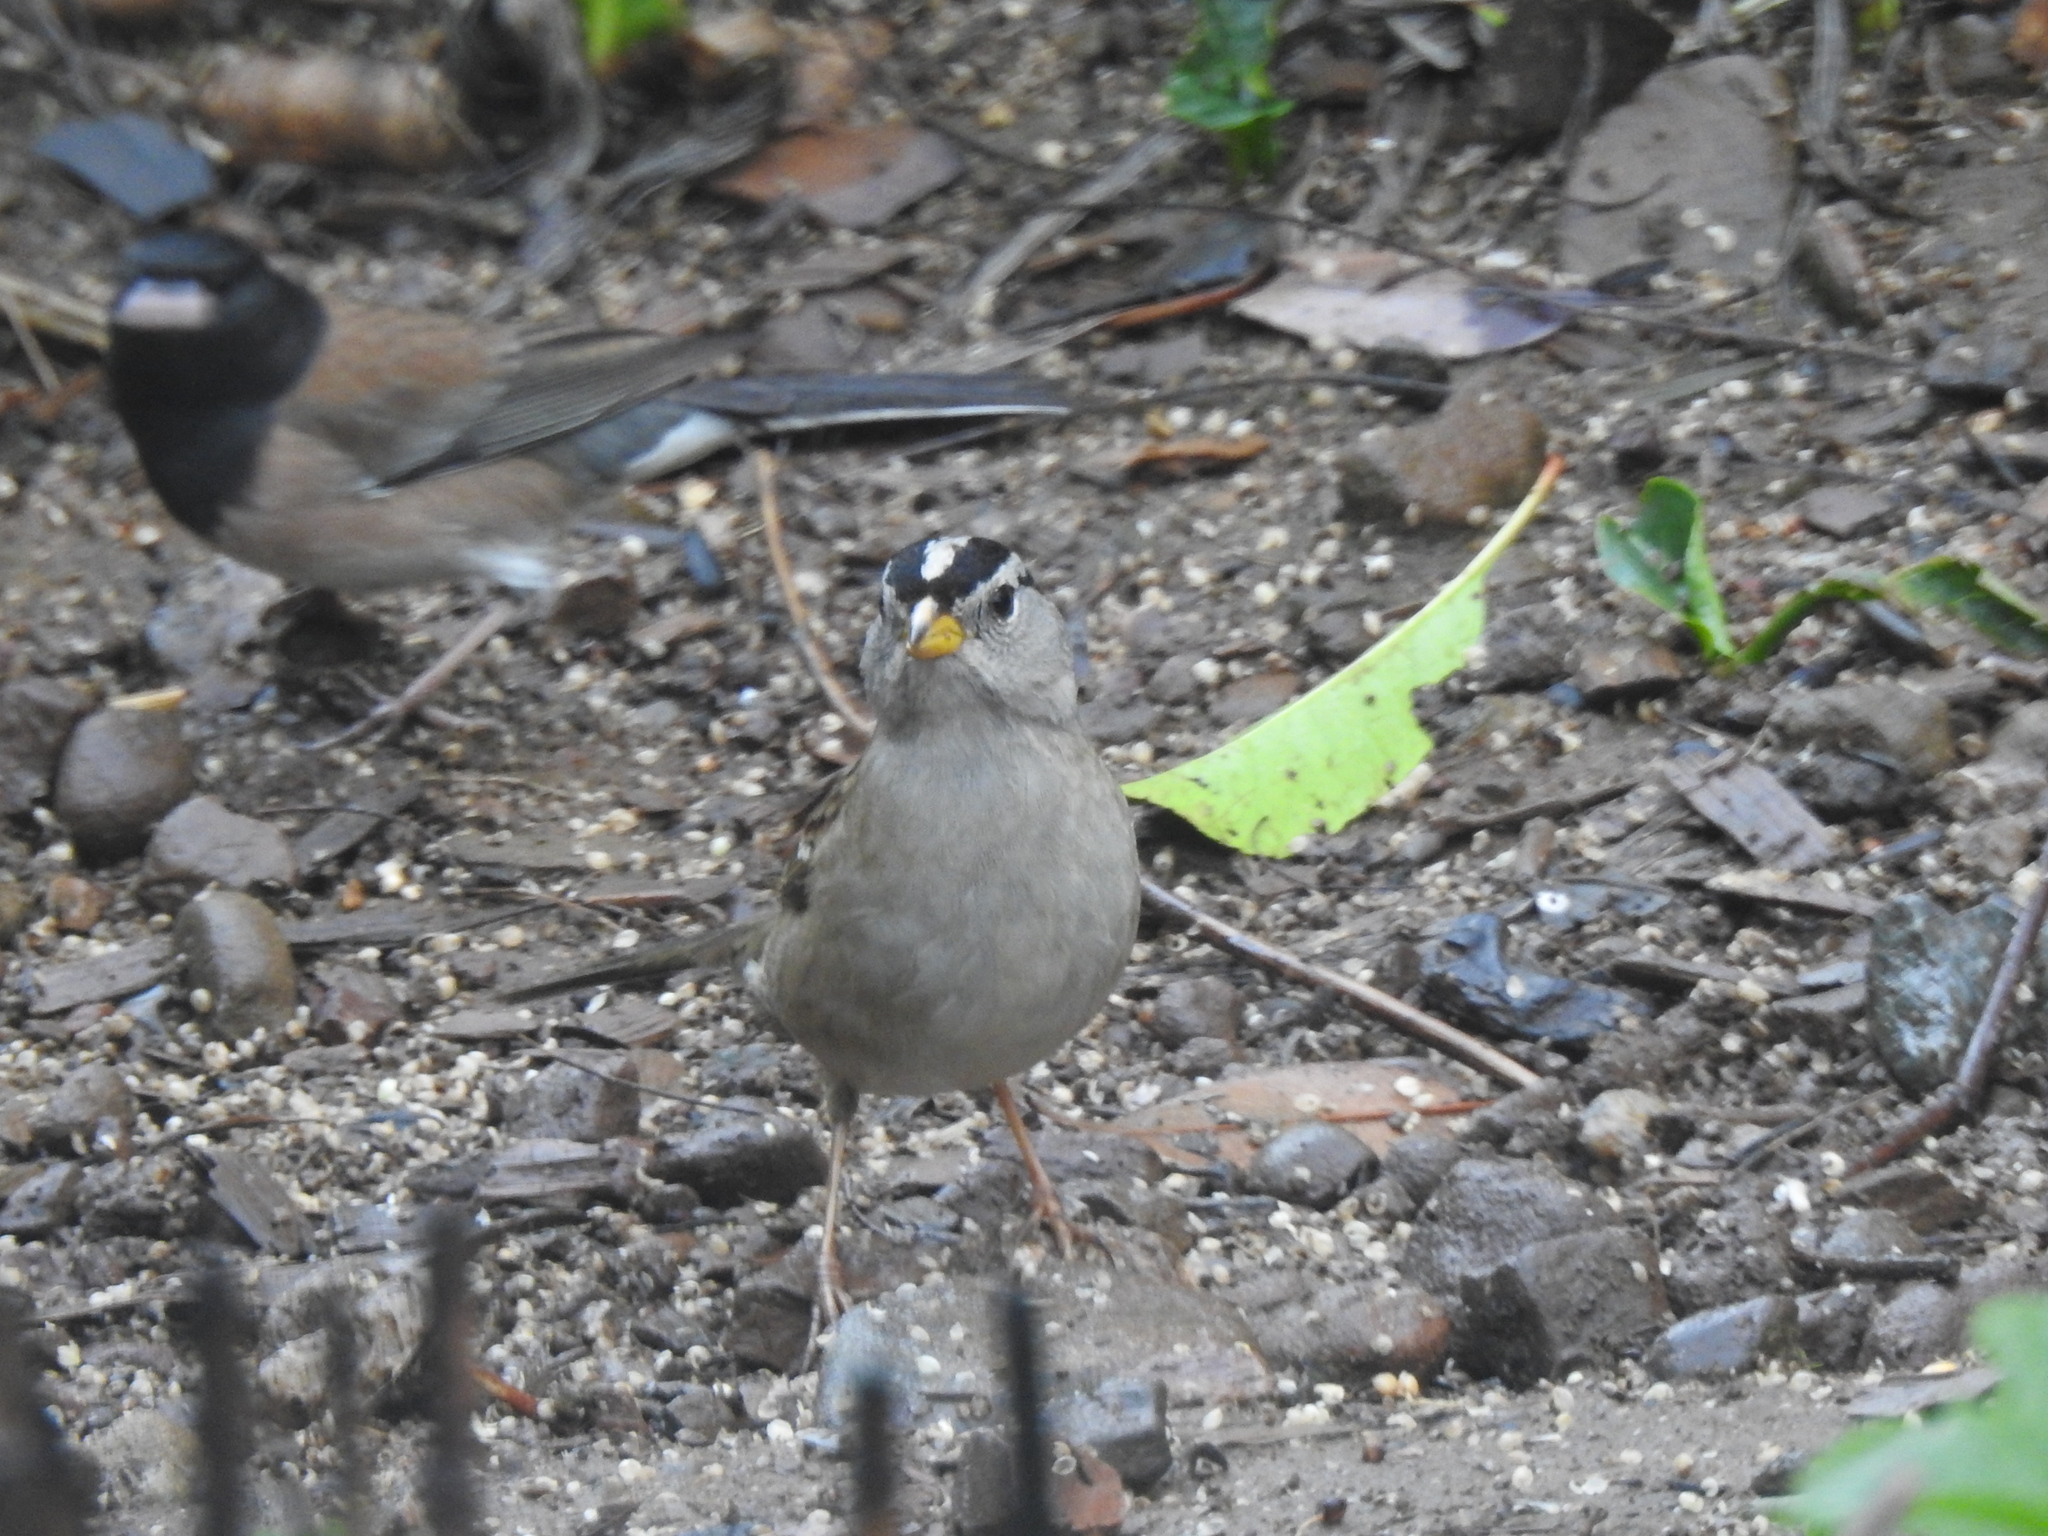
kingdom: Animalia
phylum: Chordata
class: Aves
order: Passeriformes
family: Passerellidae
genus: Zonotrichia
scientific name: Zonotrichia leucophrys
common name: White-crowned sparrow
